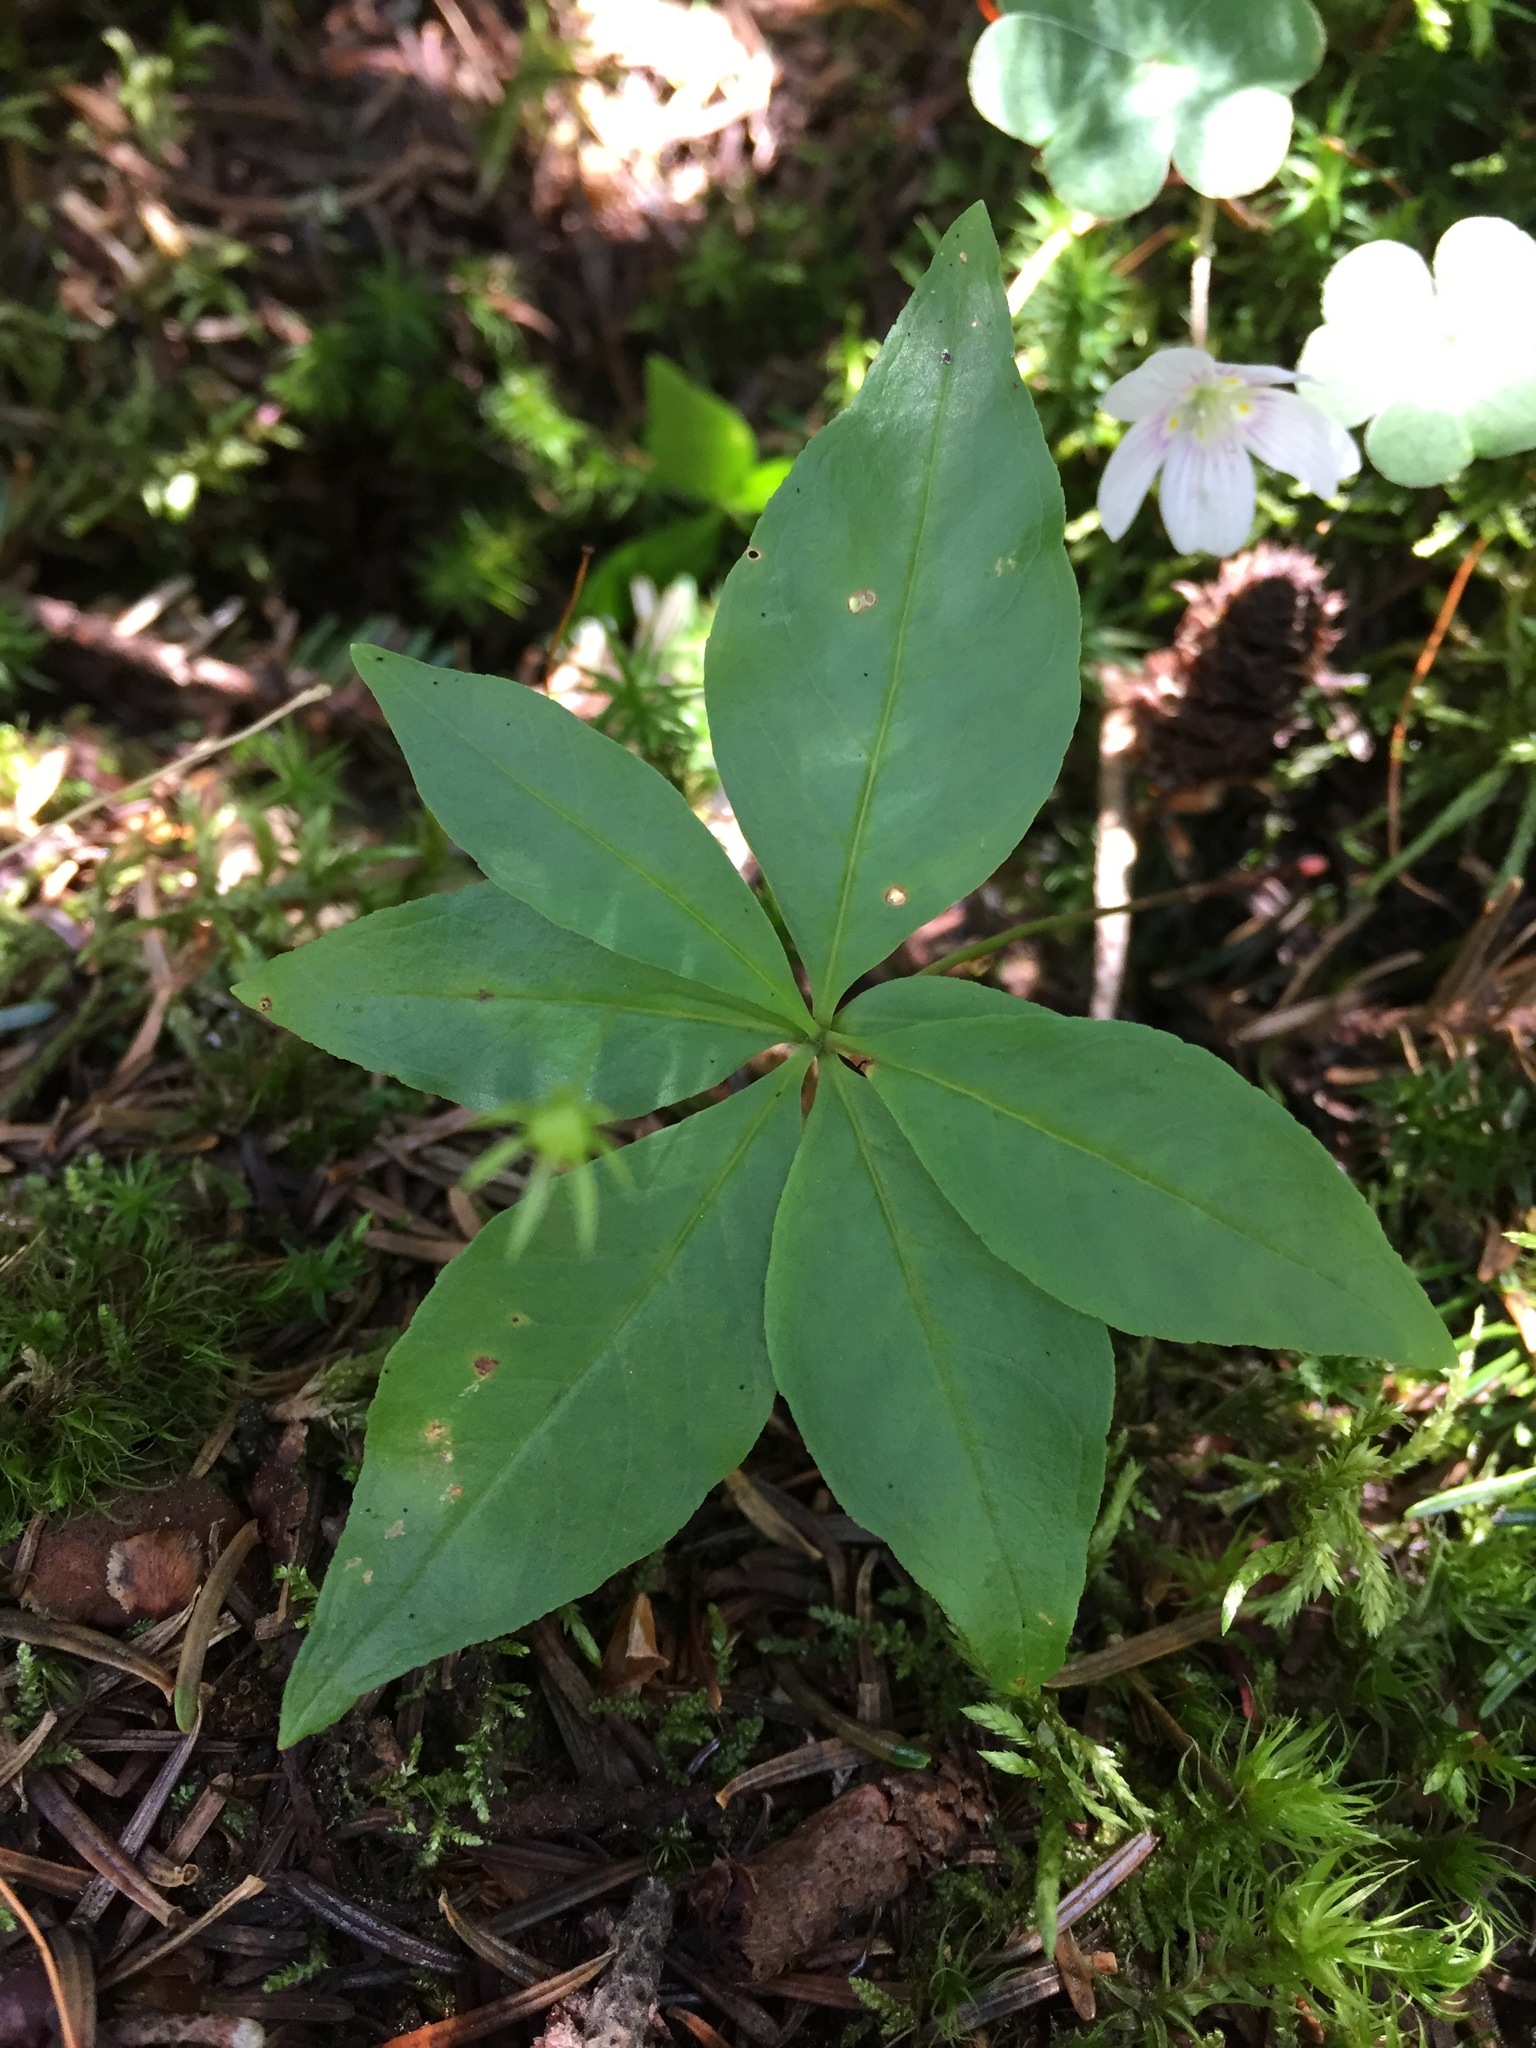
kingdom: Plantae
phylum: Tracheophyta
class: Magnoliopsida
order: Ericales
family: Primulaceae
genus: Lysimachia
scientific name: Lysimachia borealis
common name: American starflower
